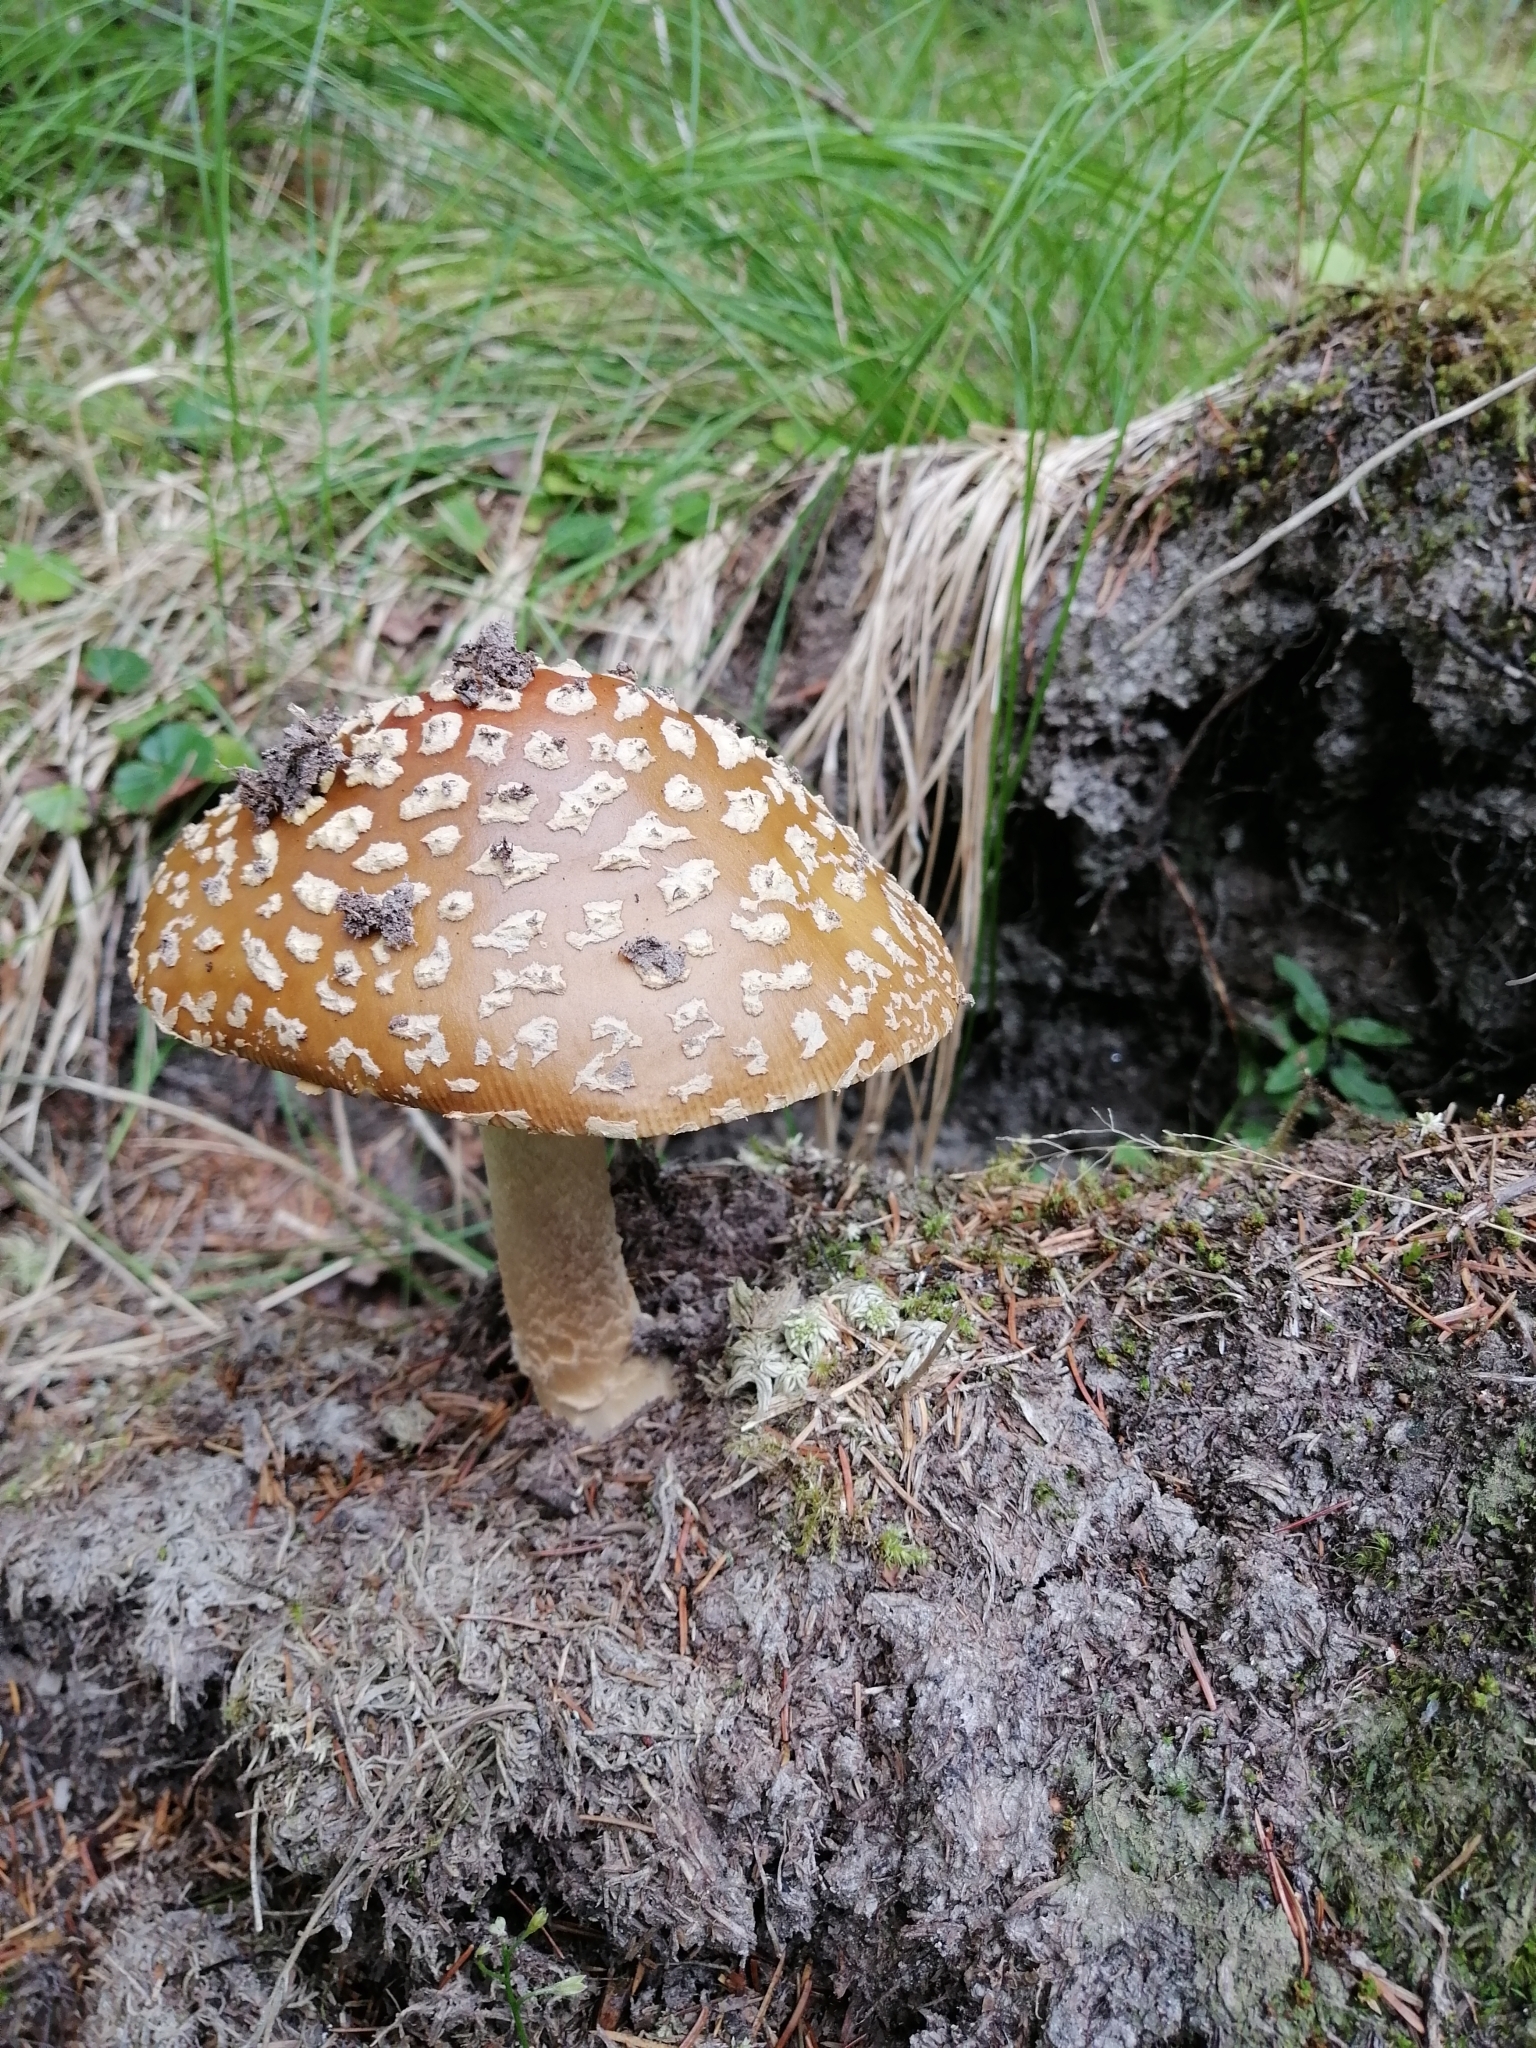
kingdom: Fungi
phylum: Basidiomycota
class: Agaricomycetes
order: Agaricales
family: Amanitaceae
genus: Amanita
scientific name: Amanita regalis
